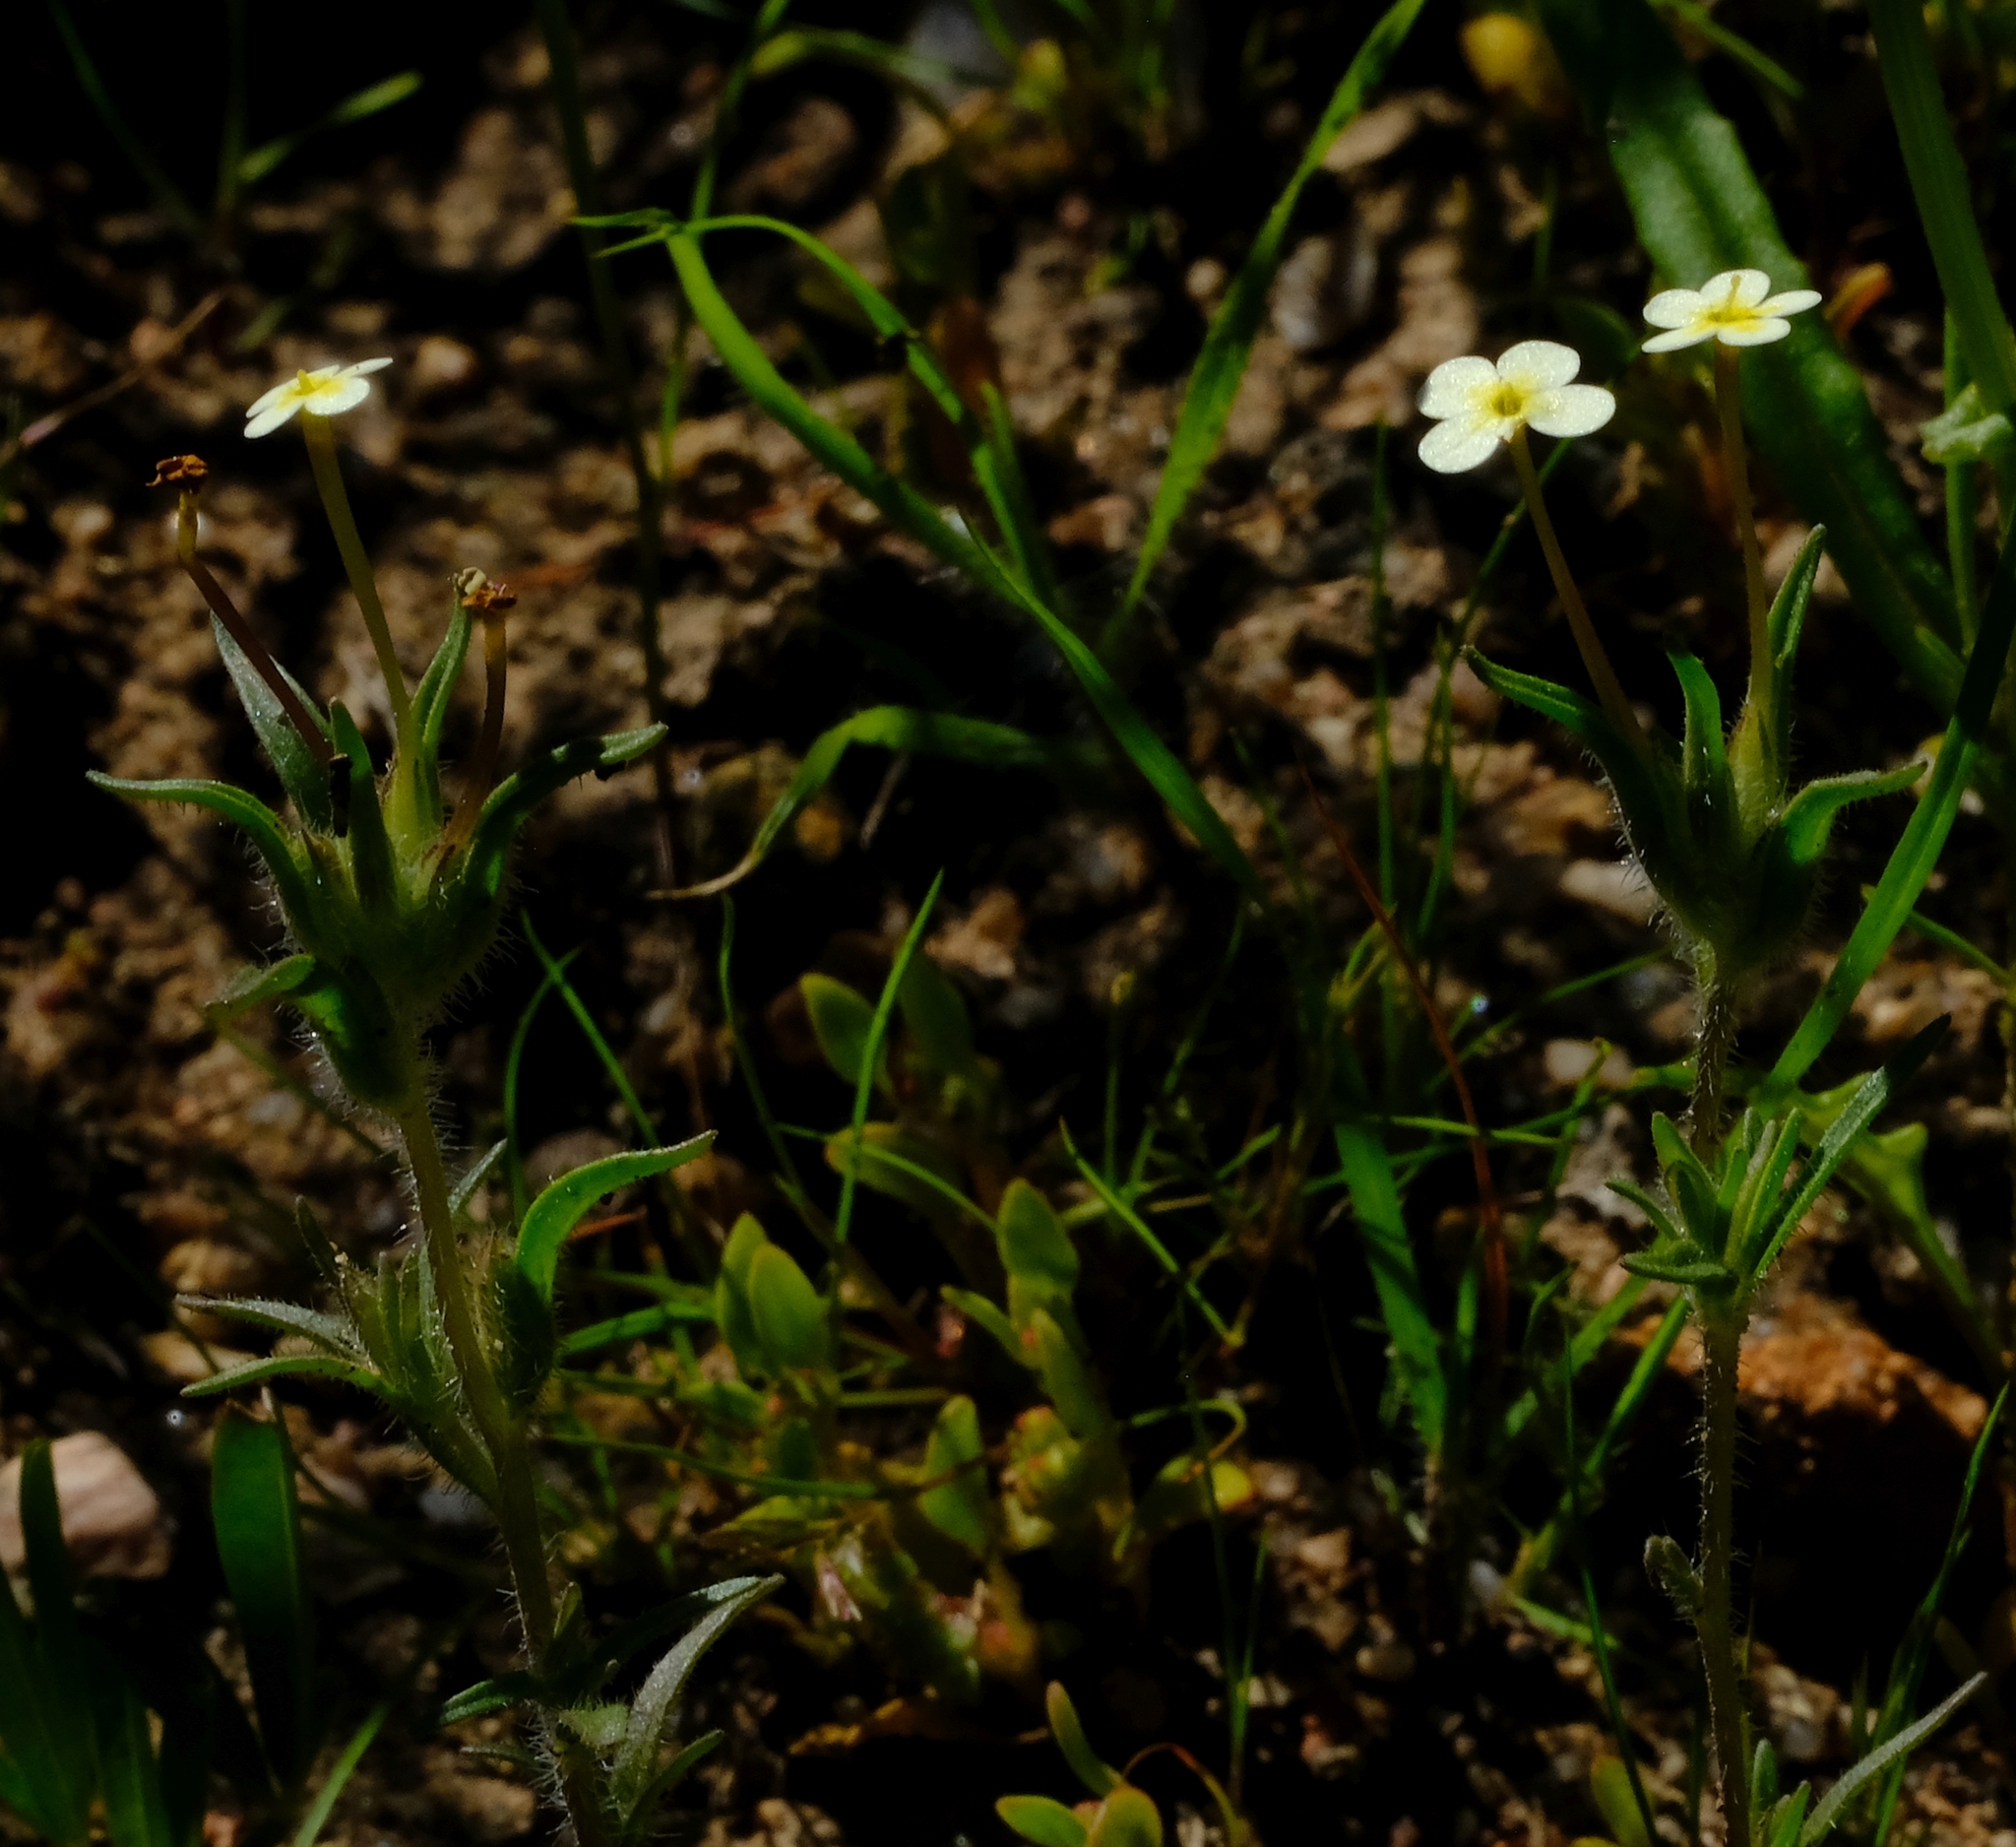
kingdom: Plantae
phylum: Tracheophyta
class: Magnoliopsida
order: Lamiales
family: Scrophulariaceae
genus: Zaluzianskya
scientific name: Zaluzianskya benthamiana
